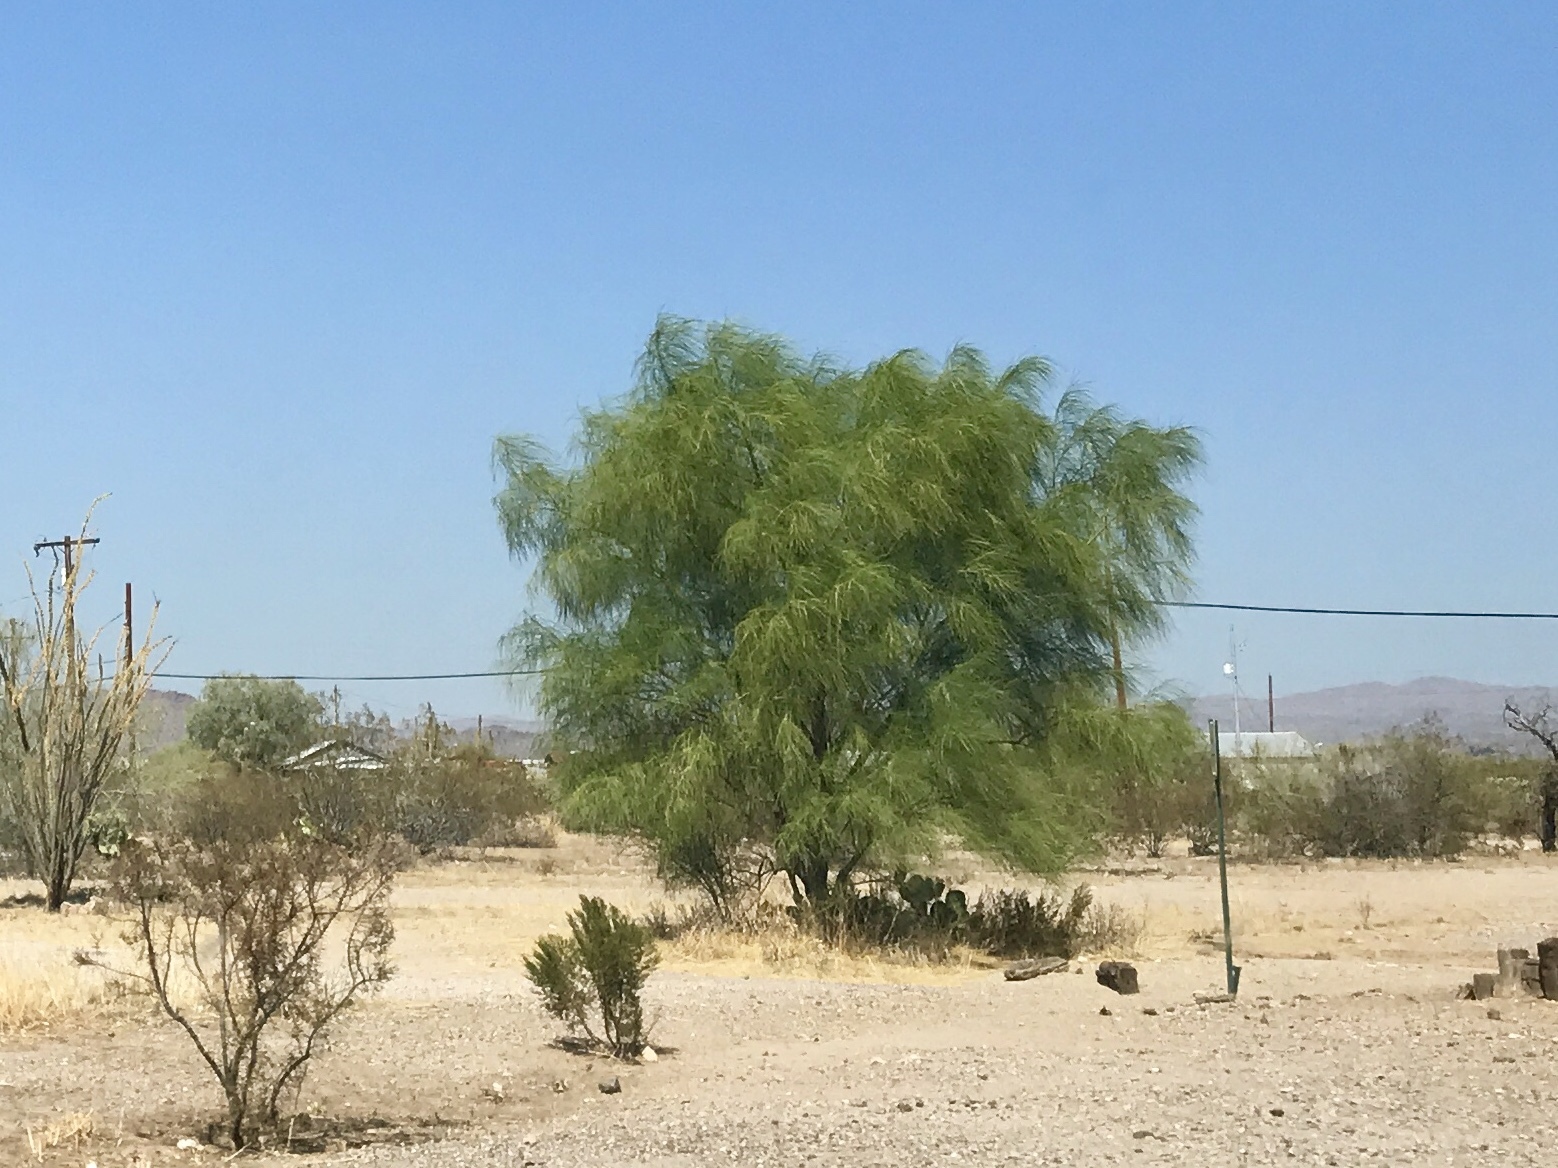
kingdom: Plantae
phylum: Tracheophyta
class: Magnoliopsida
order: Fabales
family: Fabaceae
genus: Parkinsonia
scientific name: Parkinsonia aculeata
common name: Jerusalem thorn
